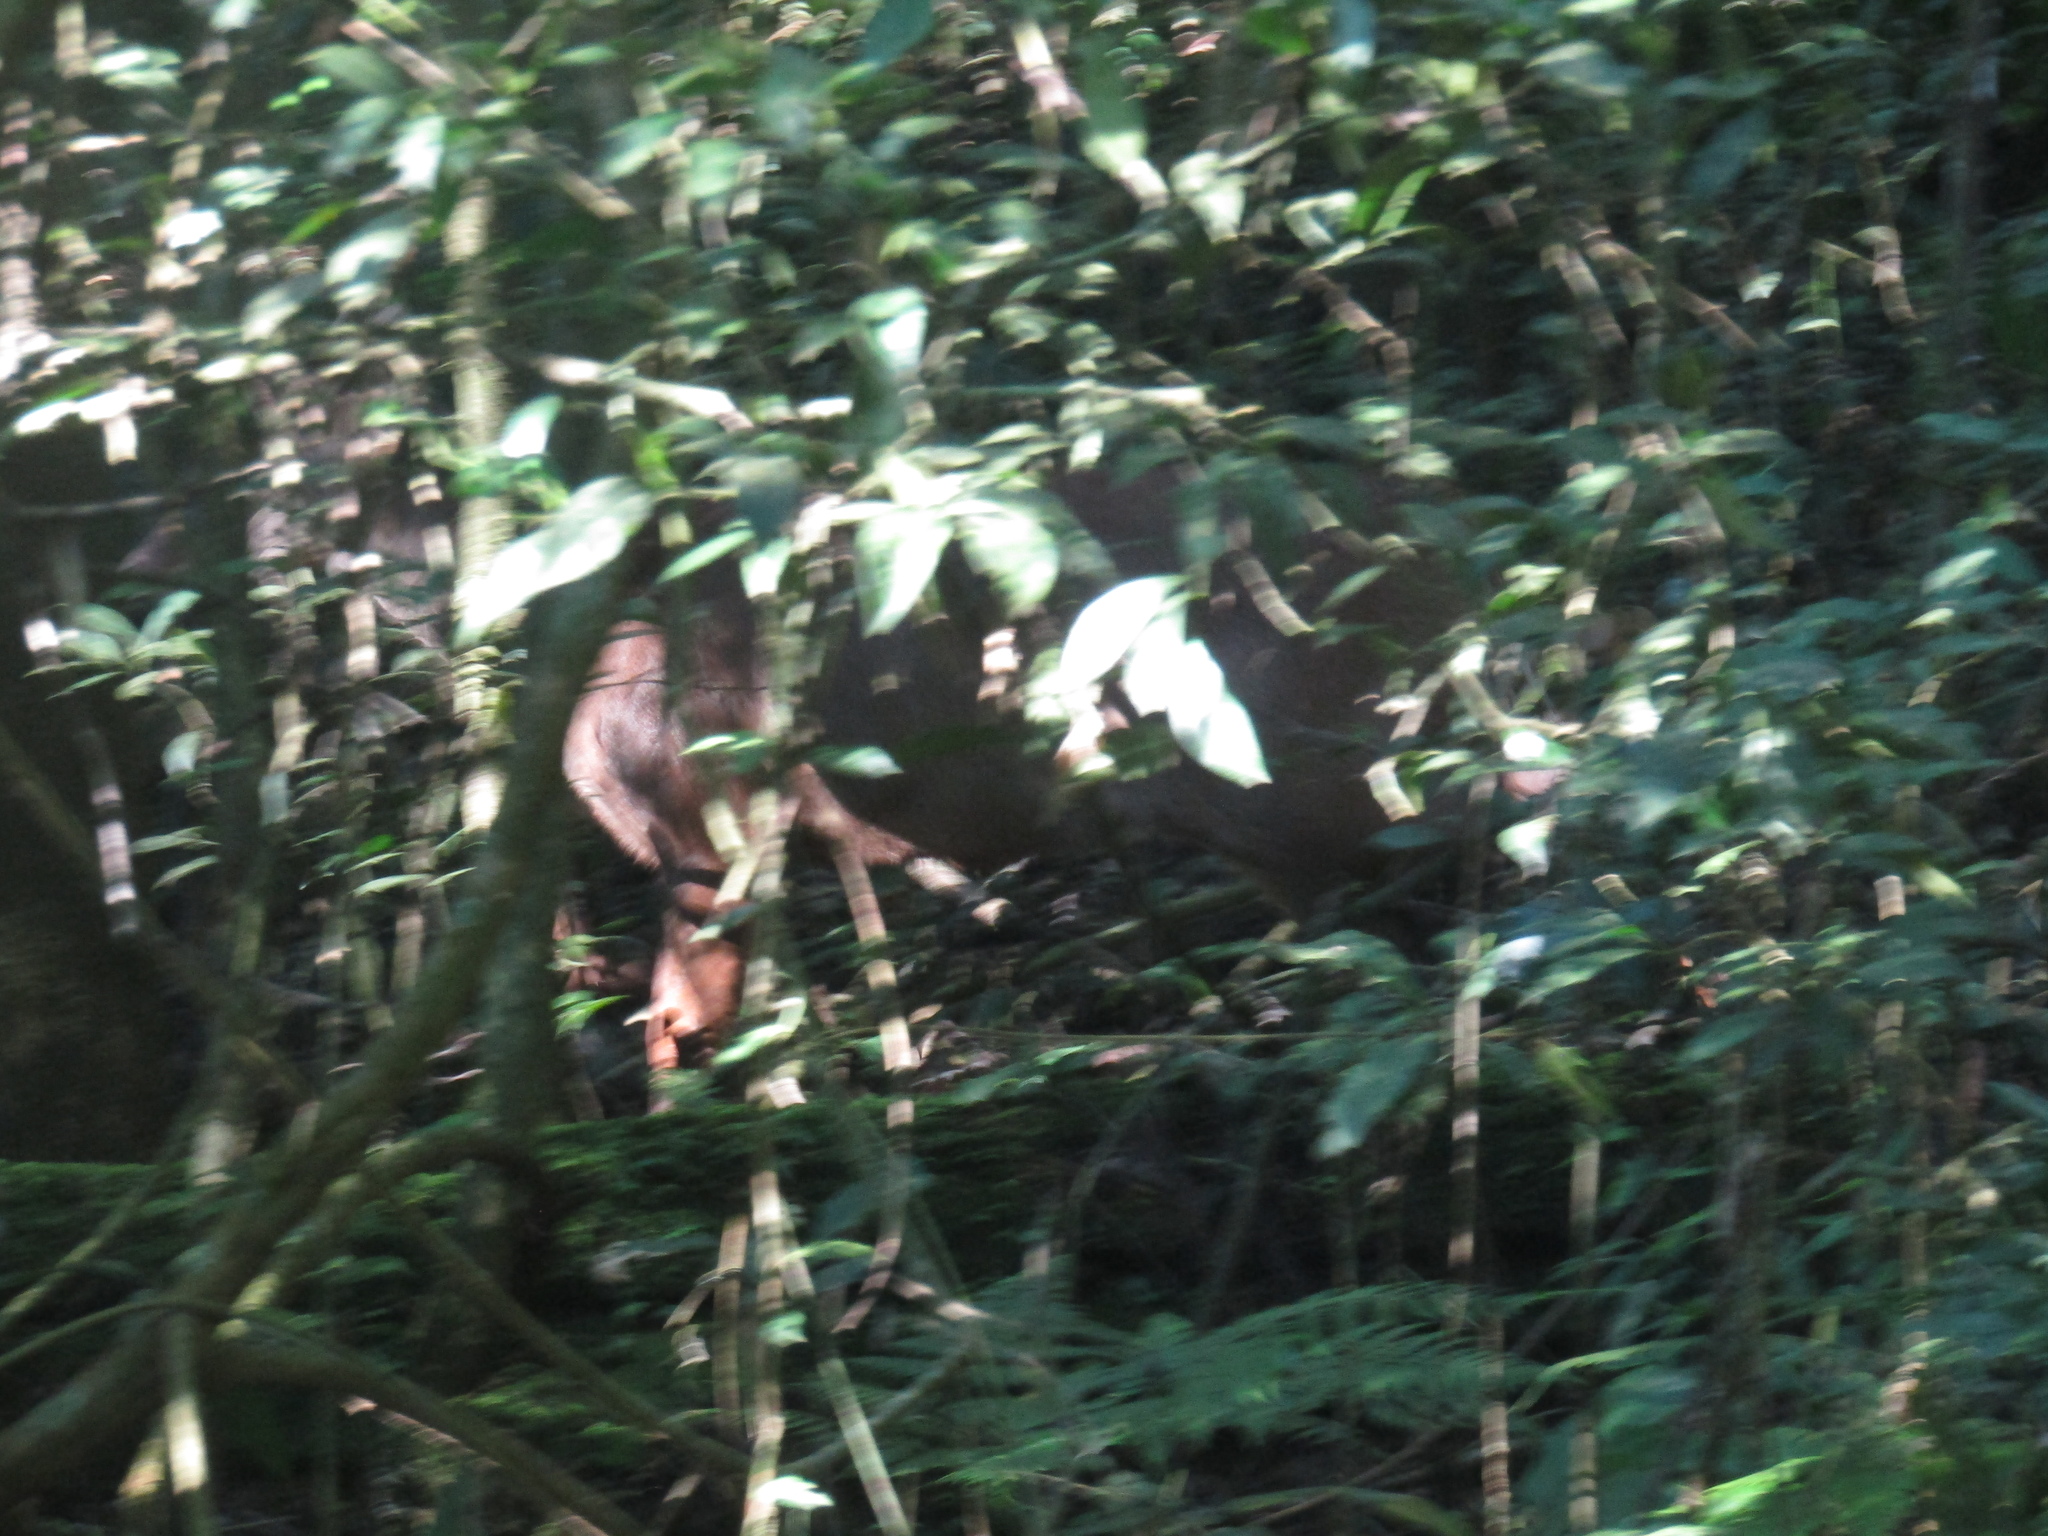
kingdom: Animalia
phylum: Chordata
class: Mammalia
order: Artiodactyla
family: Cervidae
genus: Mazama
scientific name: Mazama americana
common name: Red brocket
